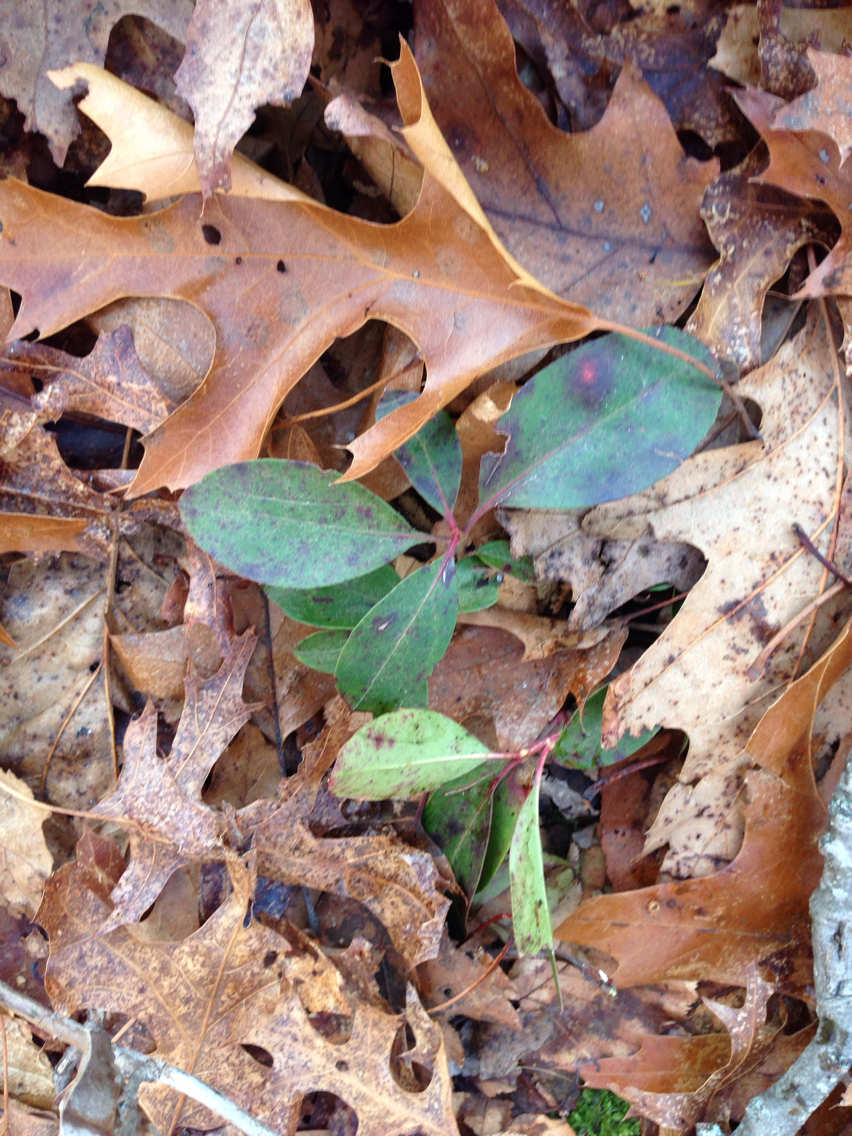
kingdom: Plantae
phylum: Tracheophyta
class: Magnoliopsida
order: Ericales
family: Ericaceae
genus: Gaultheria
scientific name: Gaultheria procumbens
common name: Checkerberry
